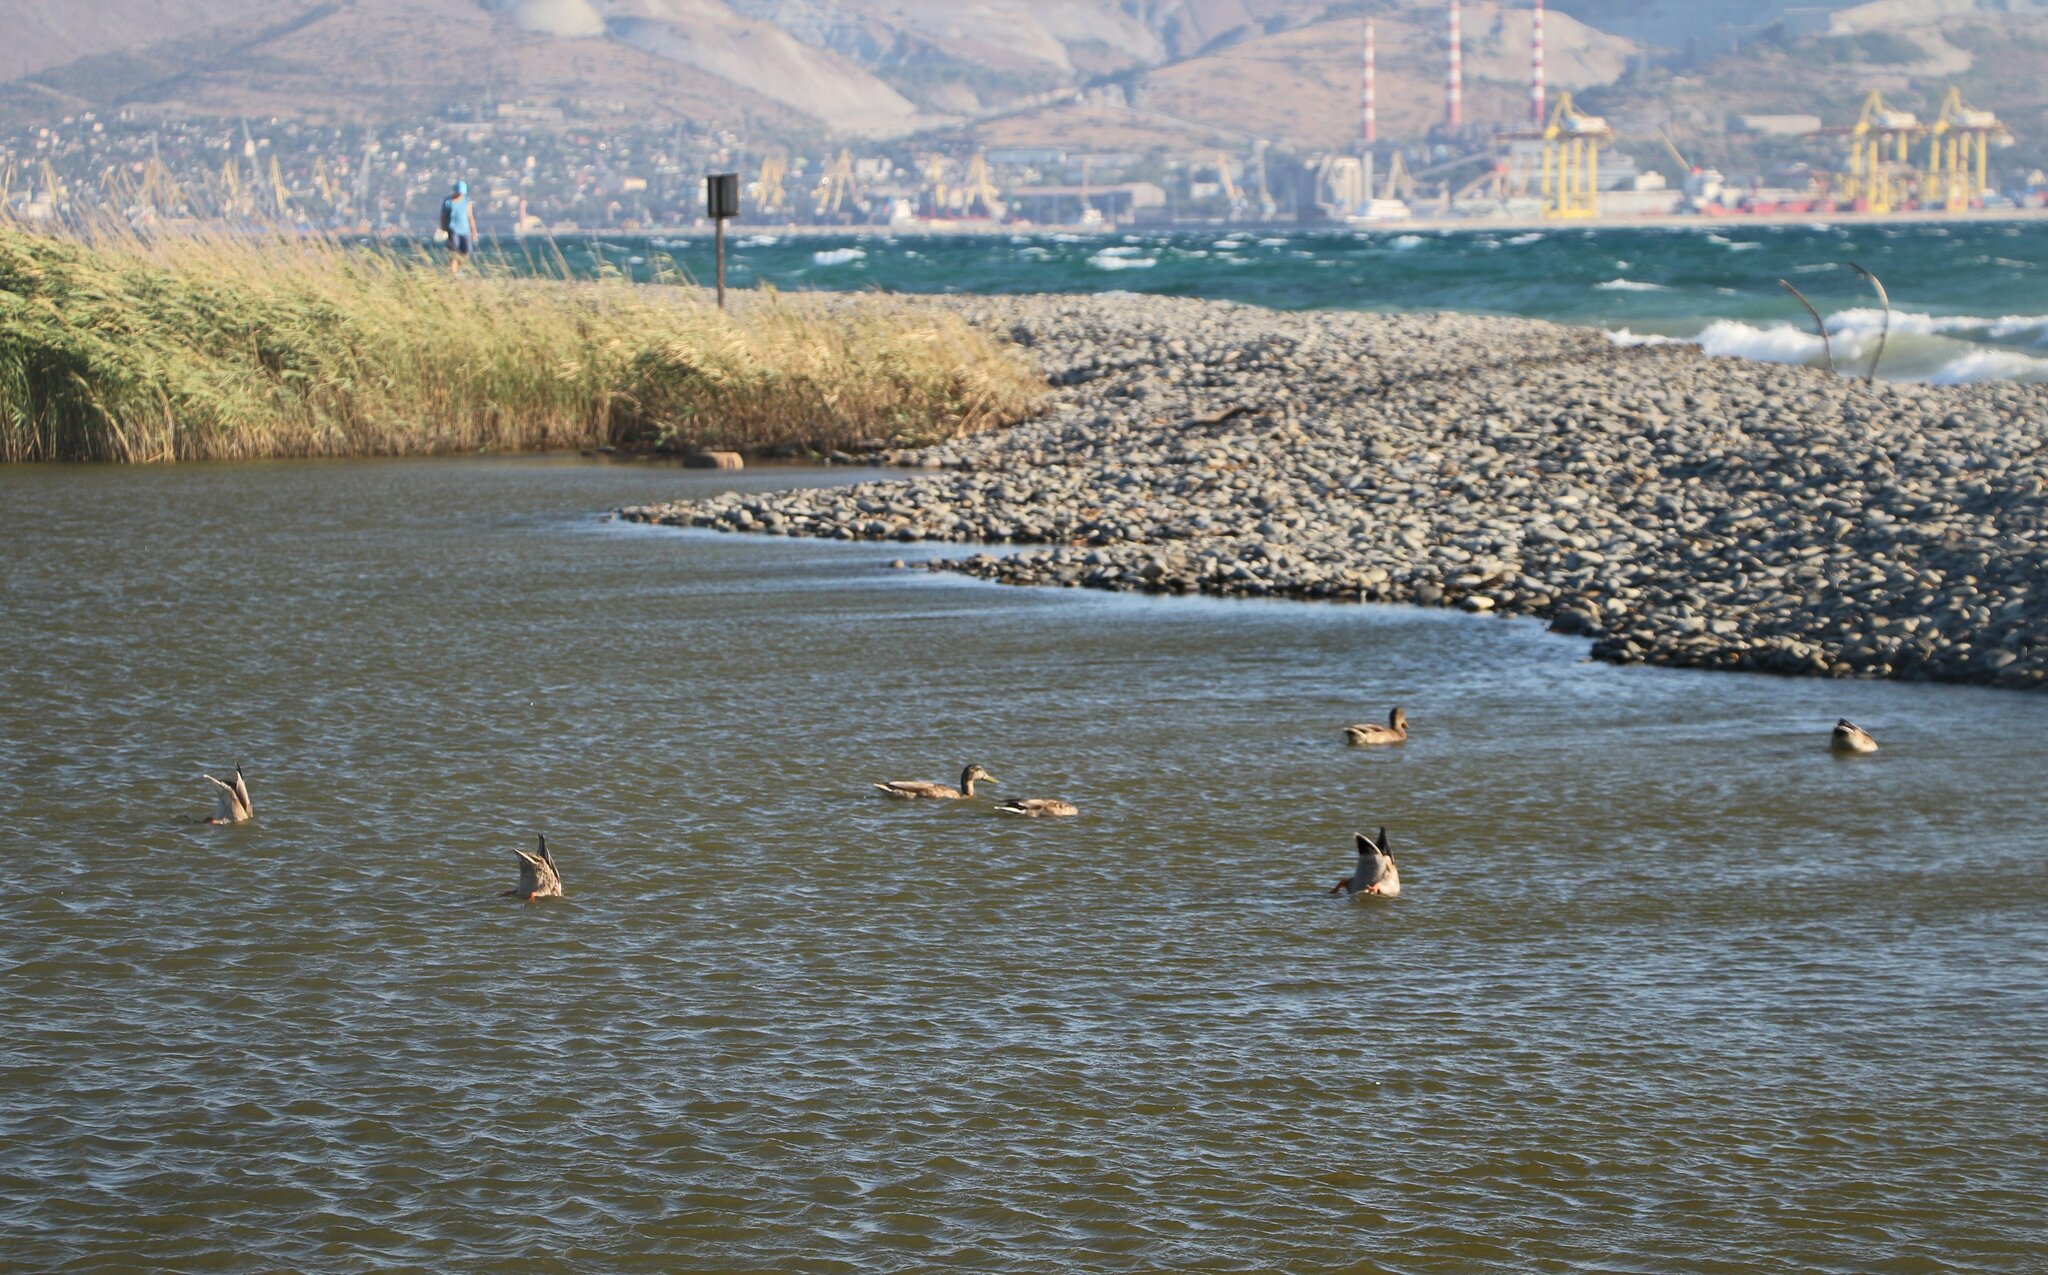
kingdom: Animalia
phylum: Chordata
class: Aves
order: Anseriformes
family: Anatidae
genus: Anas
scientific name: Anas platyrhynchos
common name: Mallard
